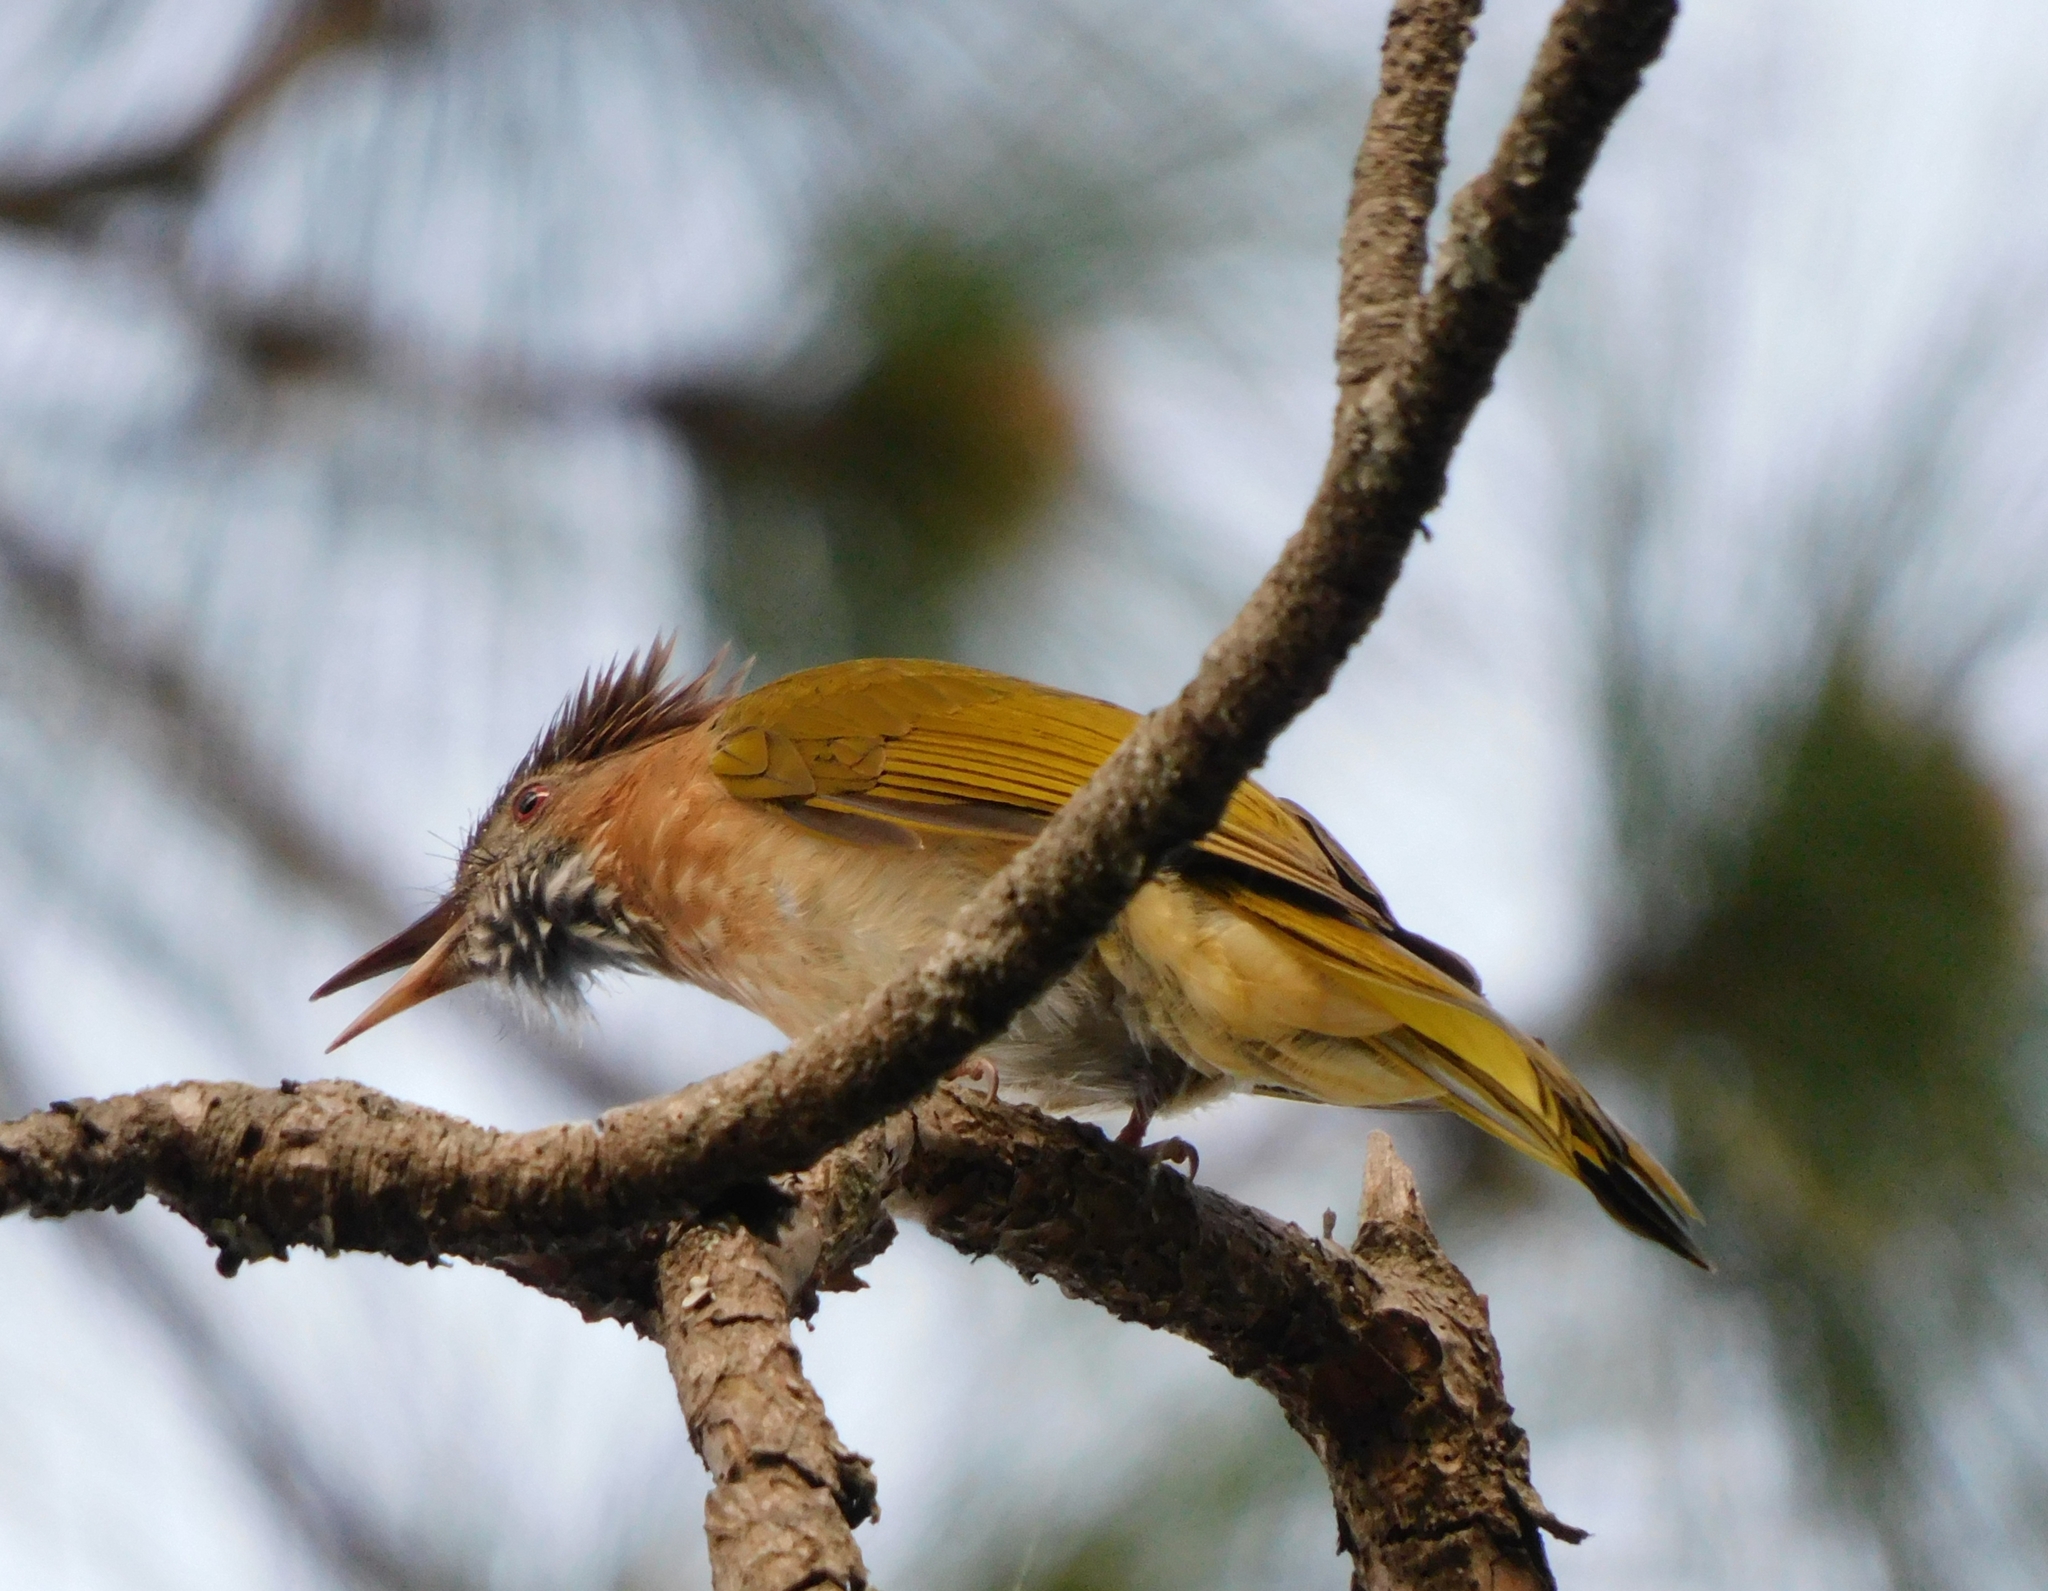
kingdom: Animalia
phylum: Chordata
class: Aves
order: Passeriformes
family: Pycnonotidae
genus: Ixos
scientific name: Ixos mcclellandii
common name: Mountain bulbul
